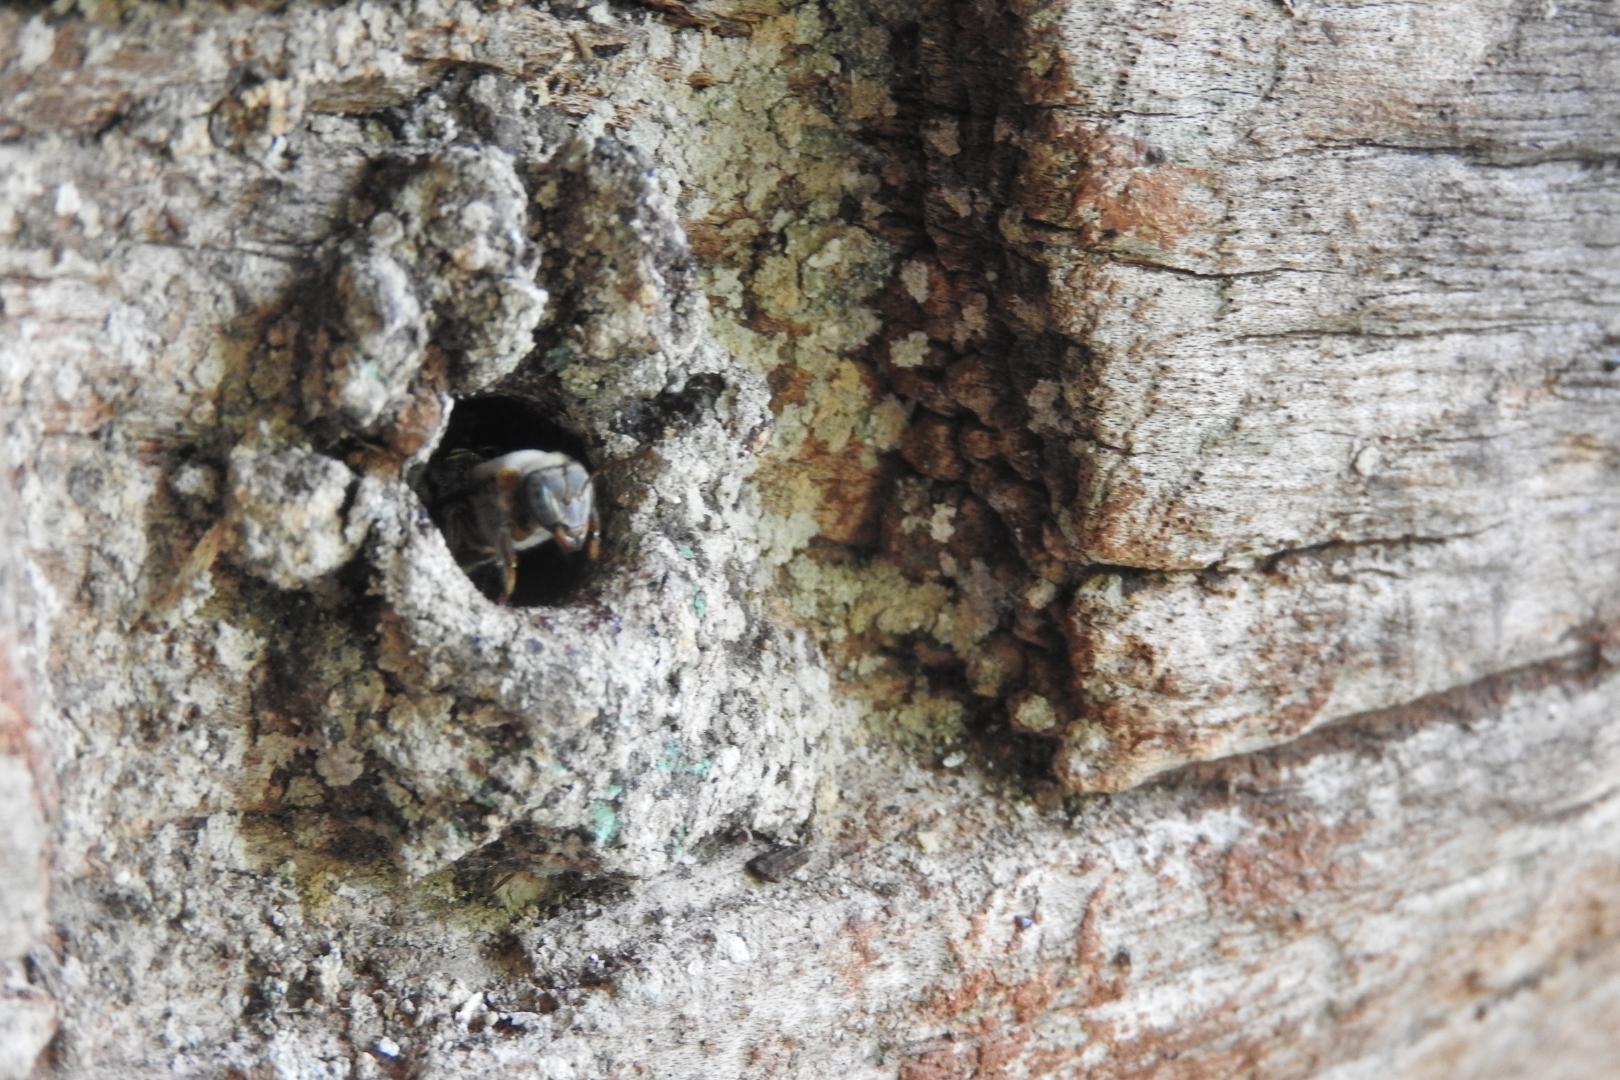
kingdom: Animalia
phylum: Arthropoda
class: Insecta
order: Hymenoptera
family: Apidae
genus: Melipona
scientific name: Melipona beecheii
